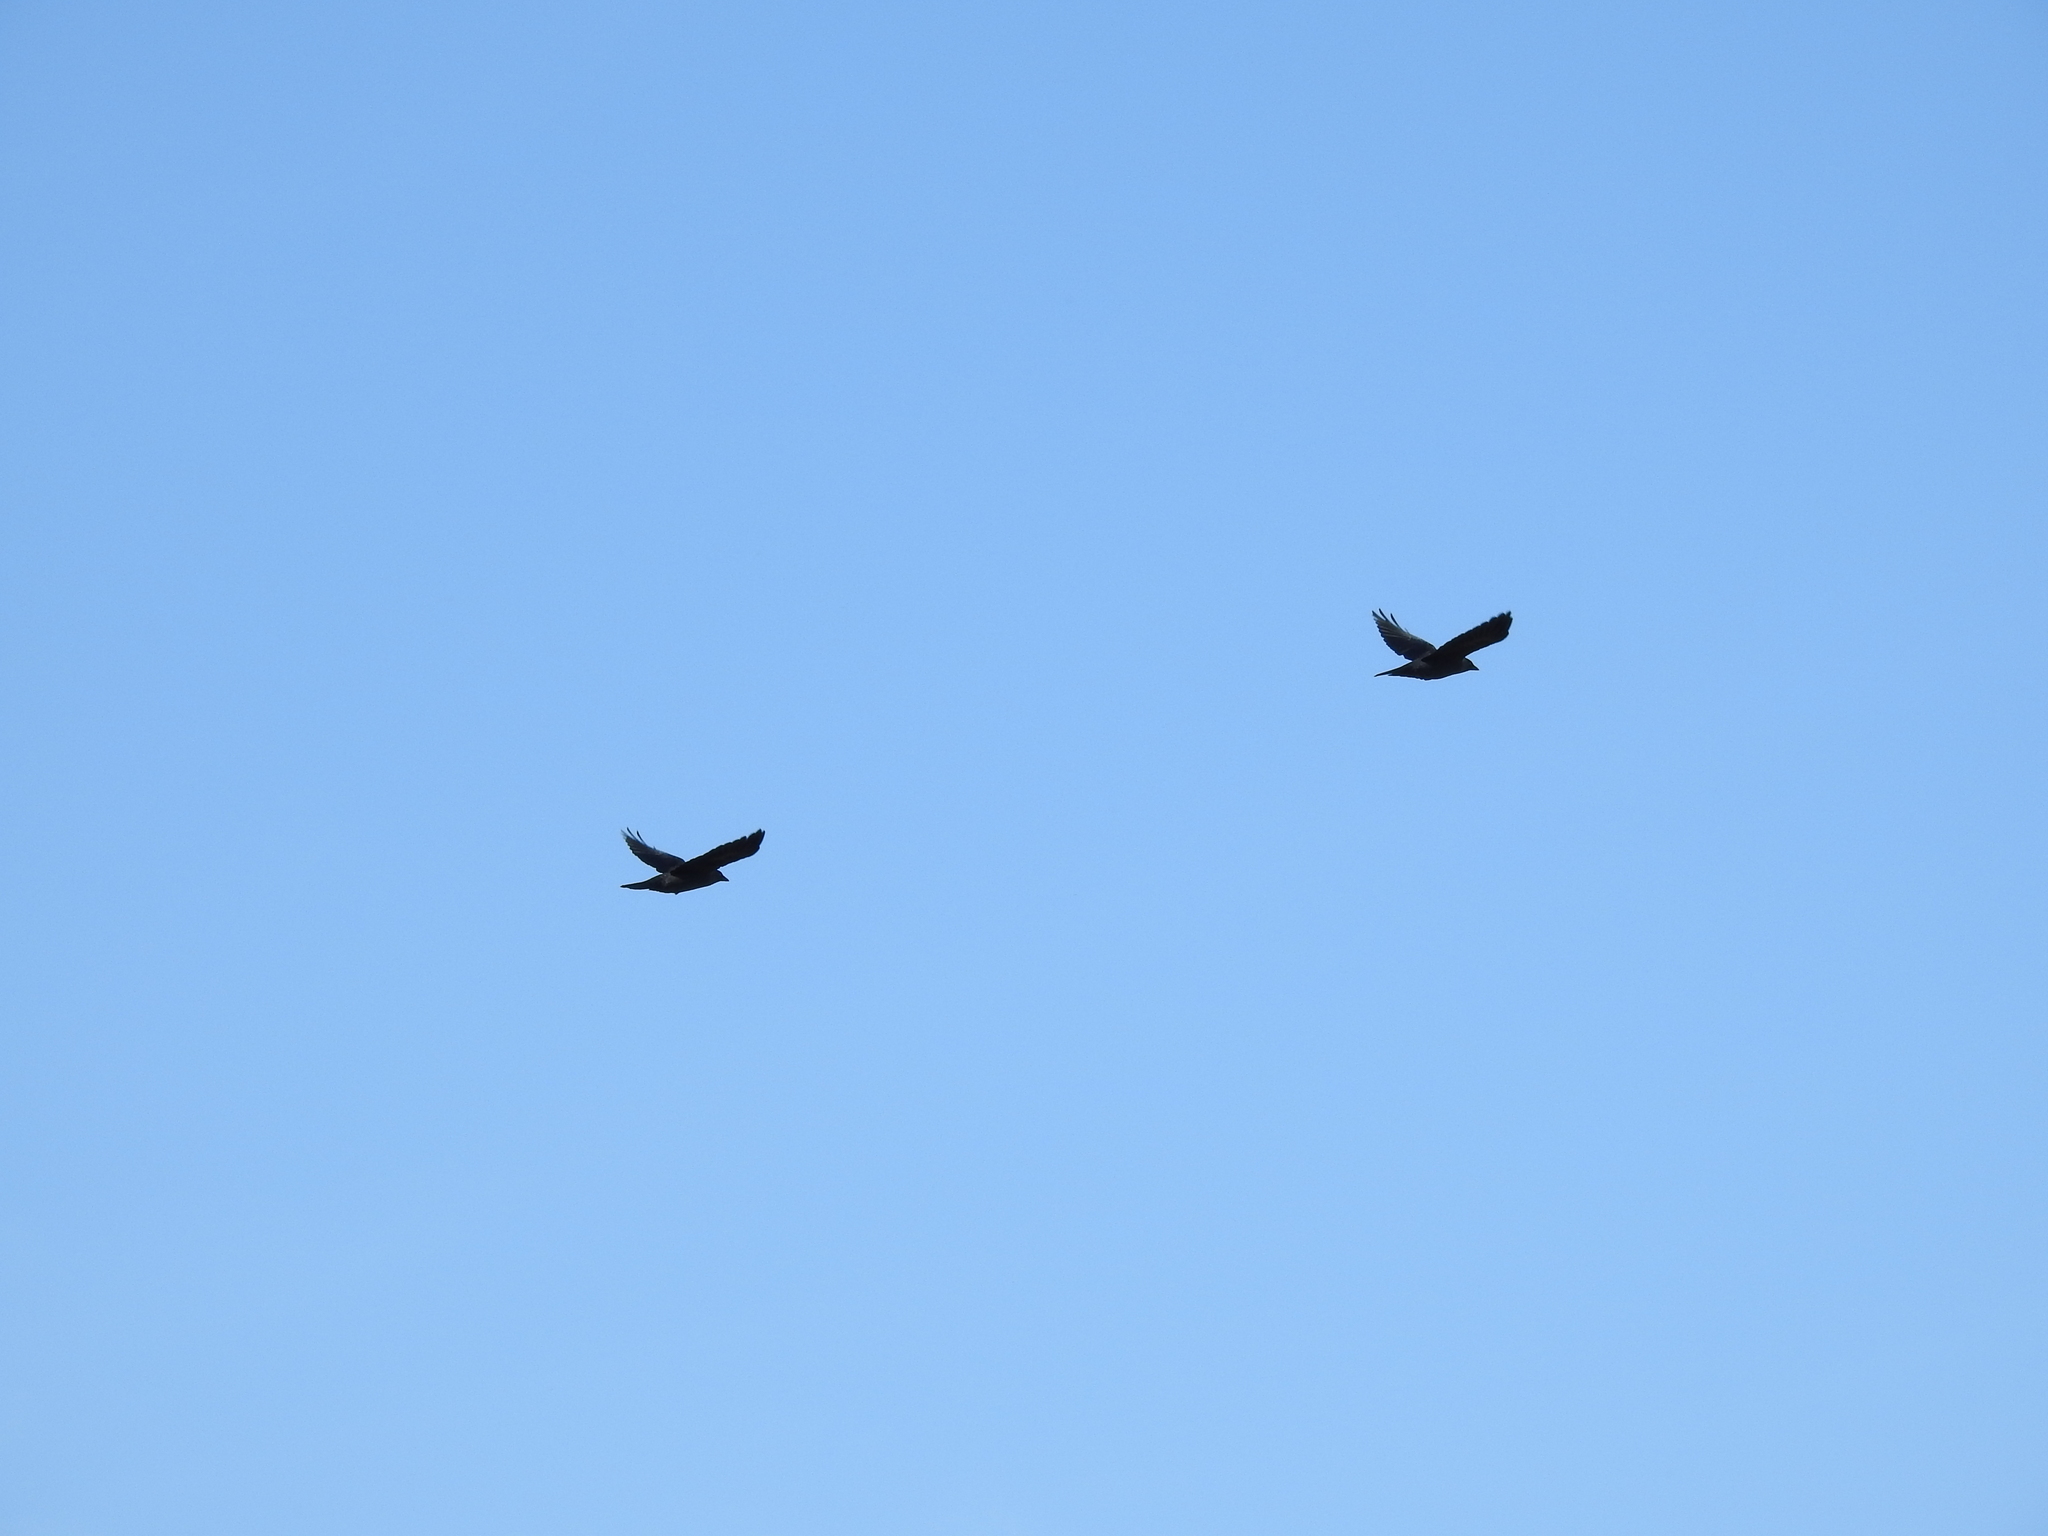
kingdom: Animalia
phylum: Chordata
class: Aves
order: Passeriformes
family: Corvidae
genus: Coloeus
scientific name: Coloeus monedula
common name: Western jackdaw
